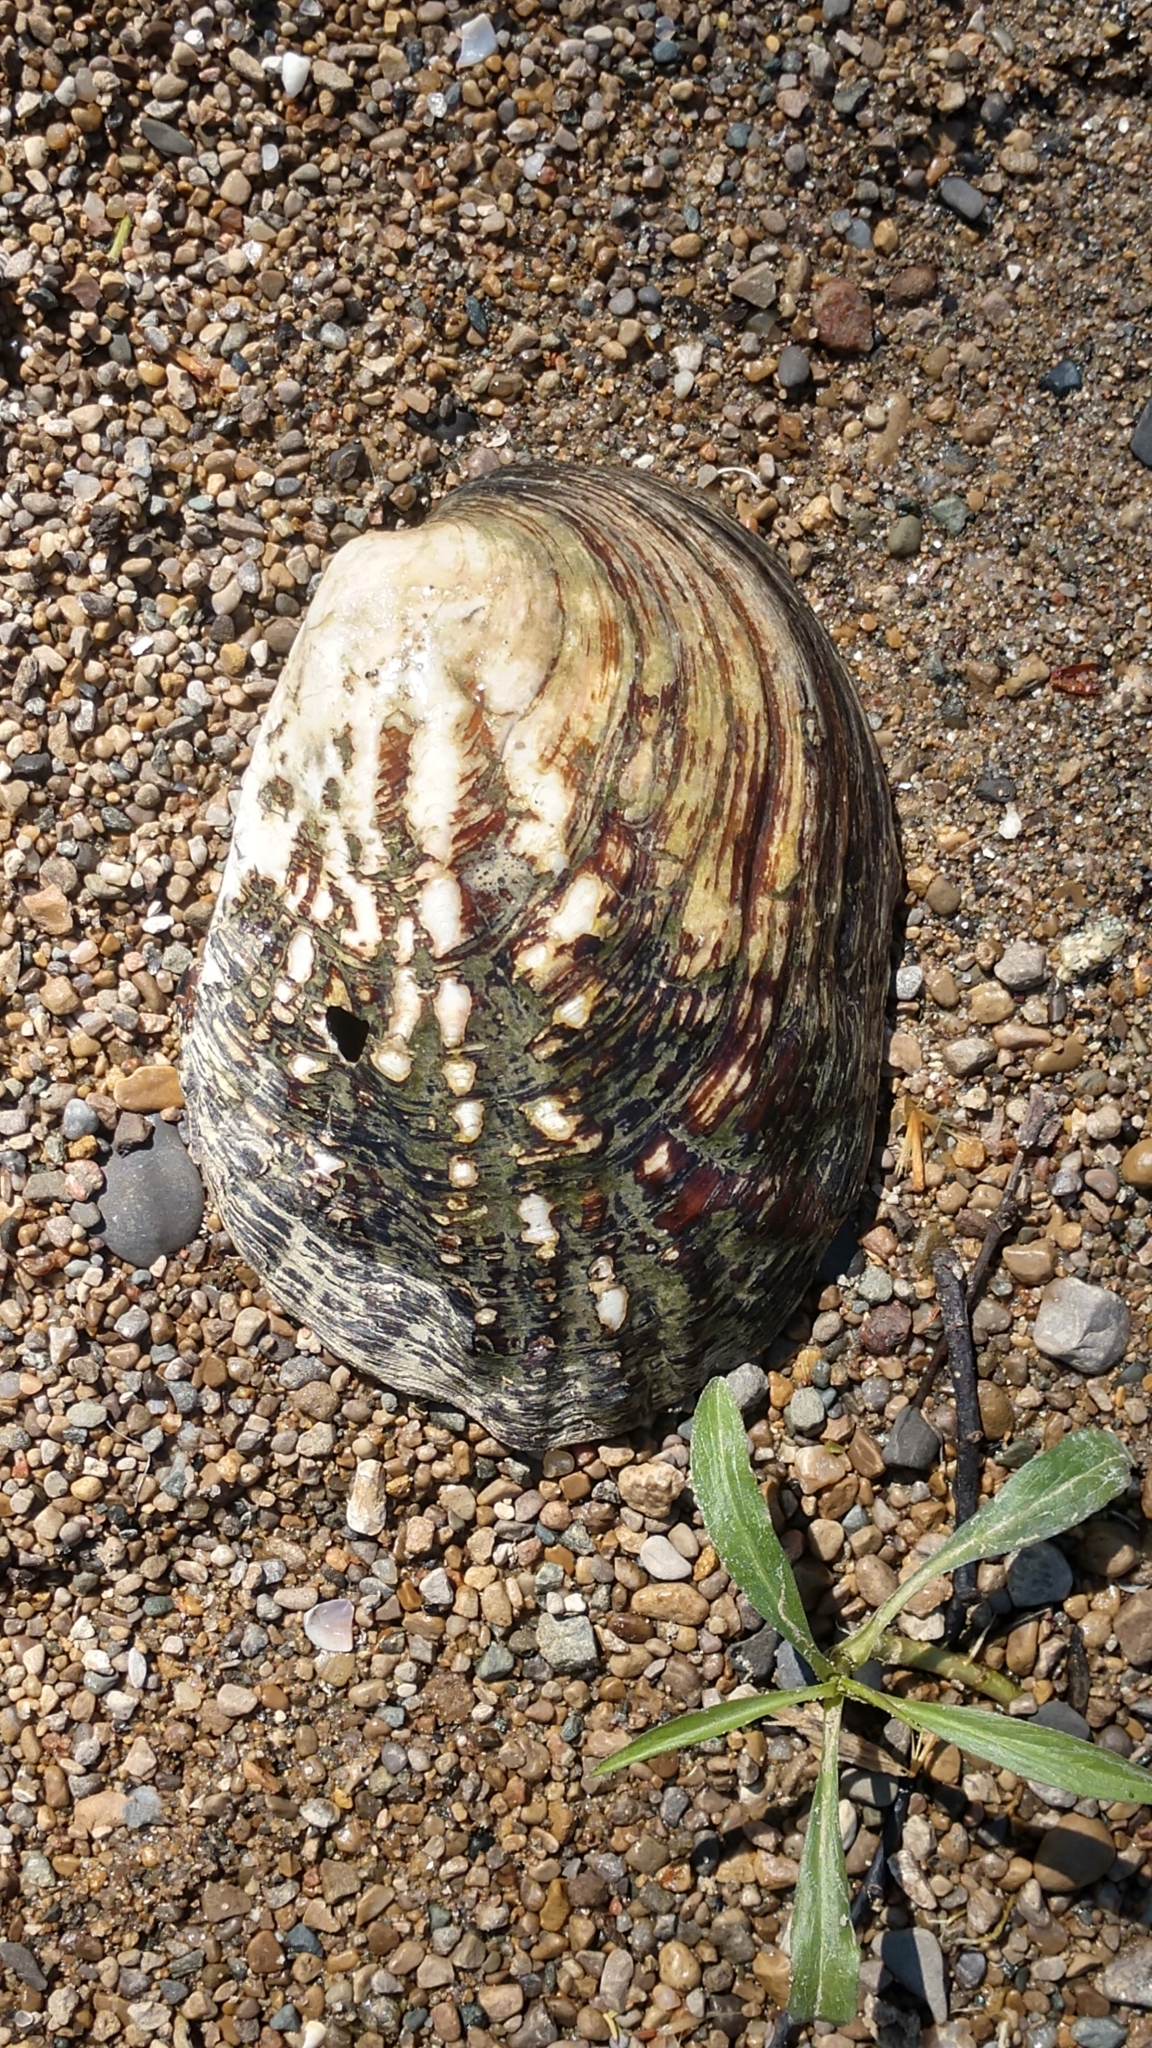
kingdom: Animalia
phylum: Mollusca
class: Bivalvia
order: Unionida
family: Unionidae
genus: Amblema
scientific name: Amblema plicata
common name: Threeridge
